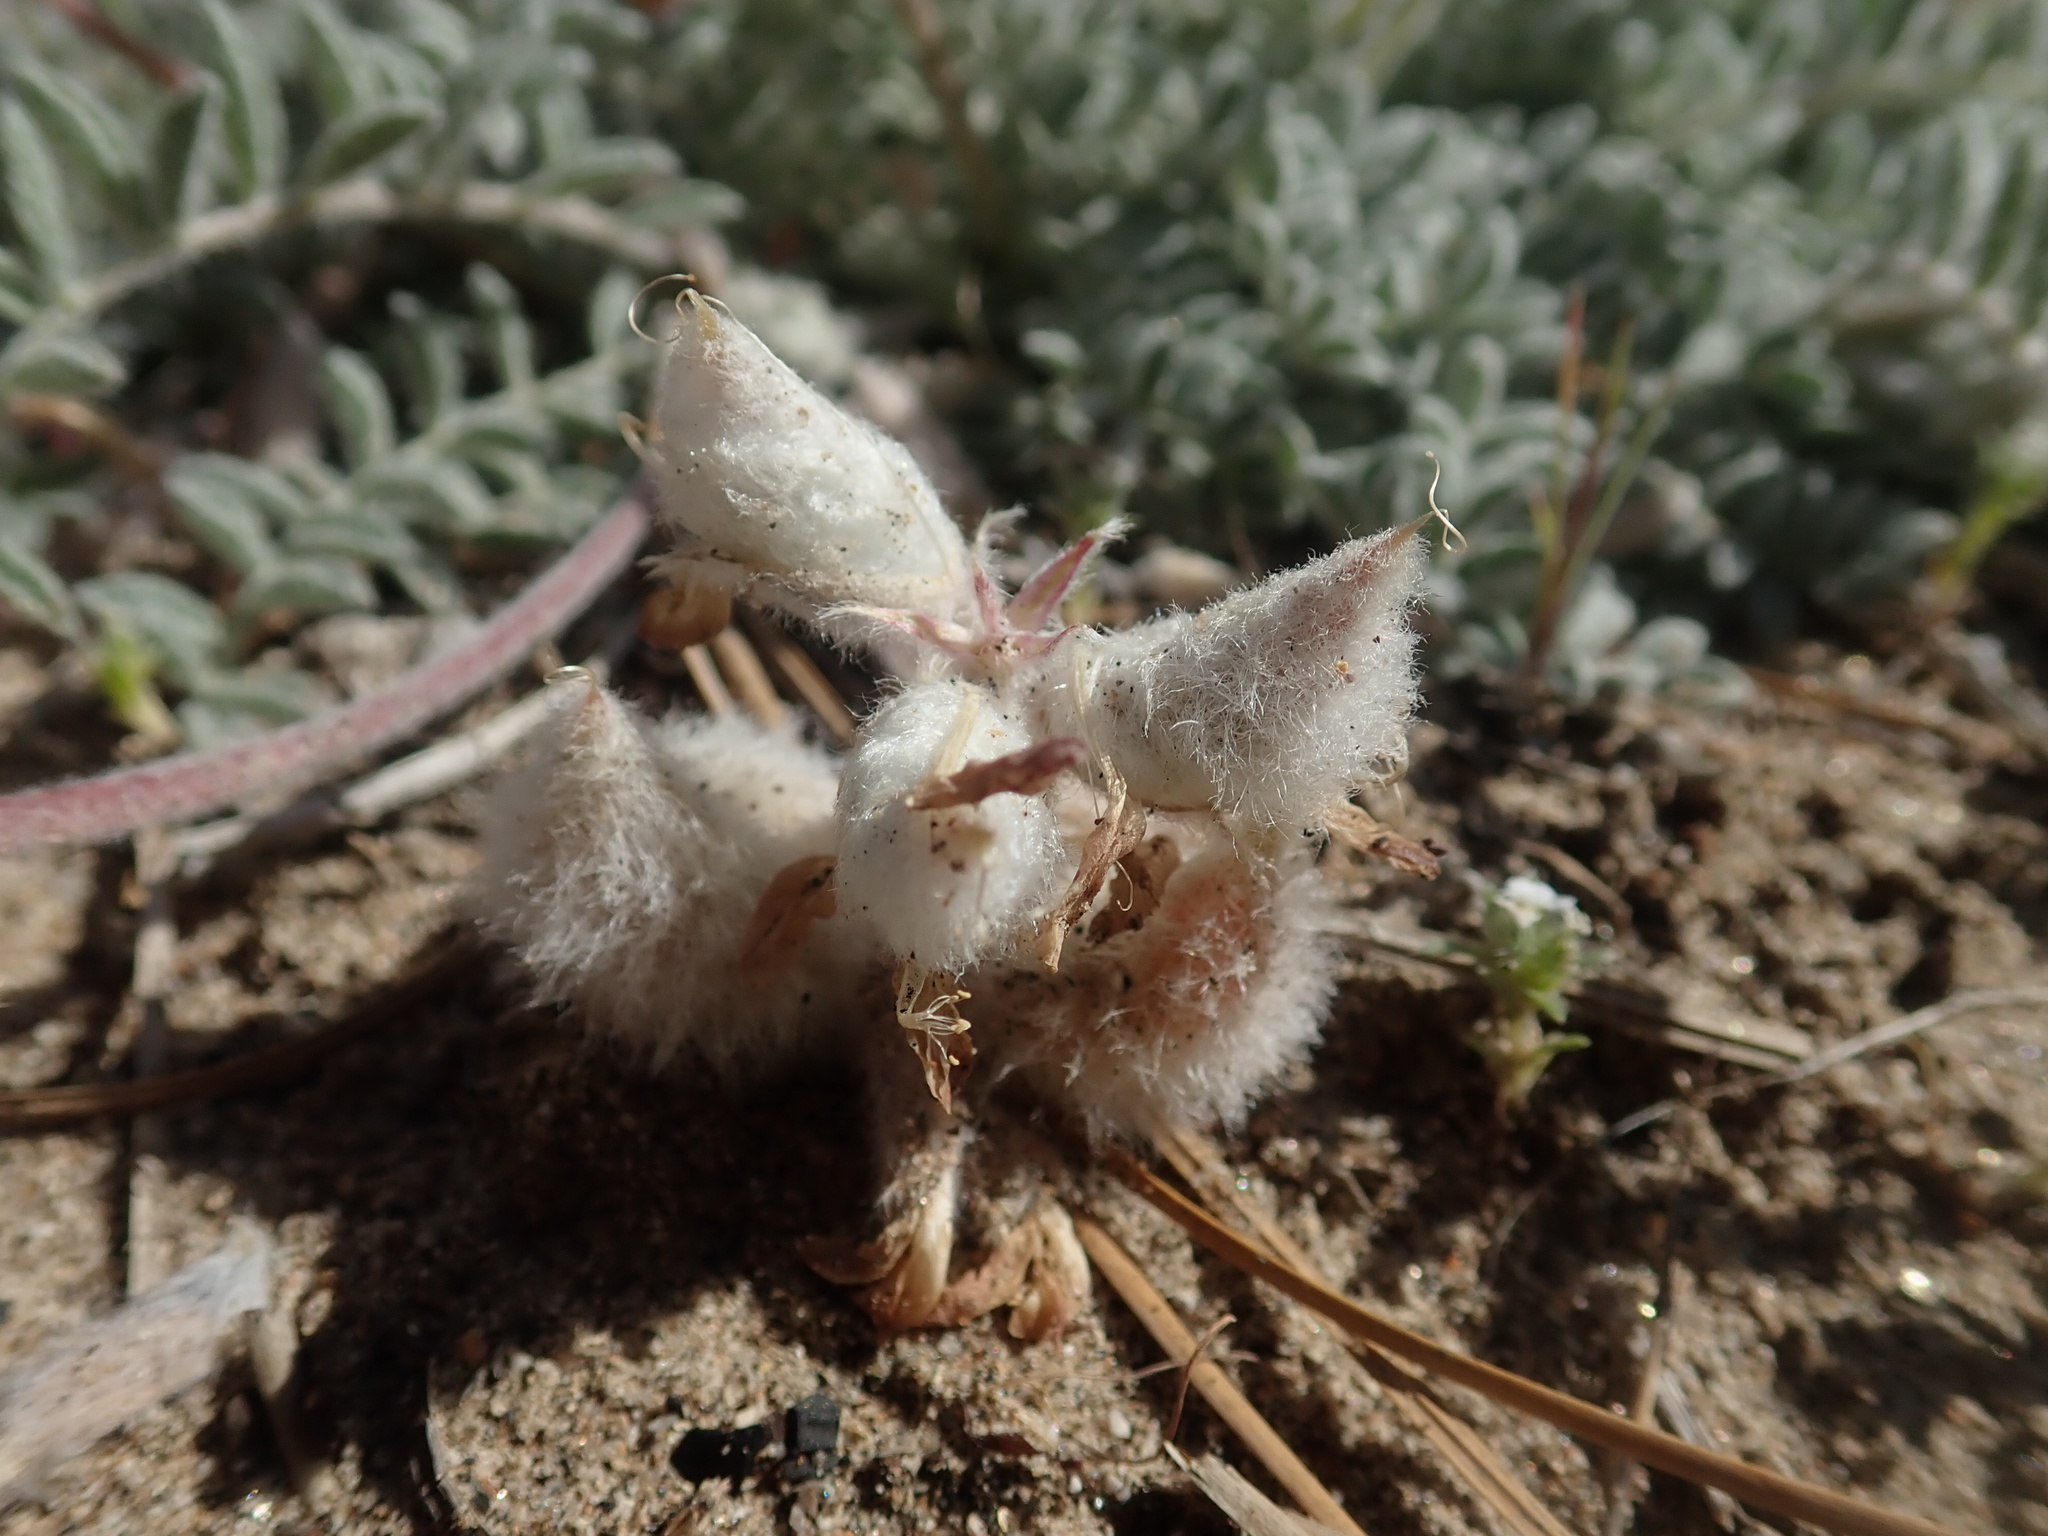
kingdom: Plantae
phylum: Tracheophyta
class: Magnoliopsida
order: Fabales
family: Fabaceae
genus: Astragalus
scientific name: Astragalus purshii
